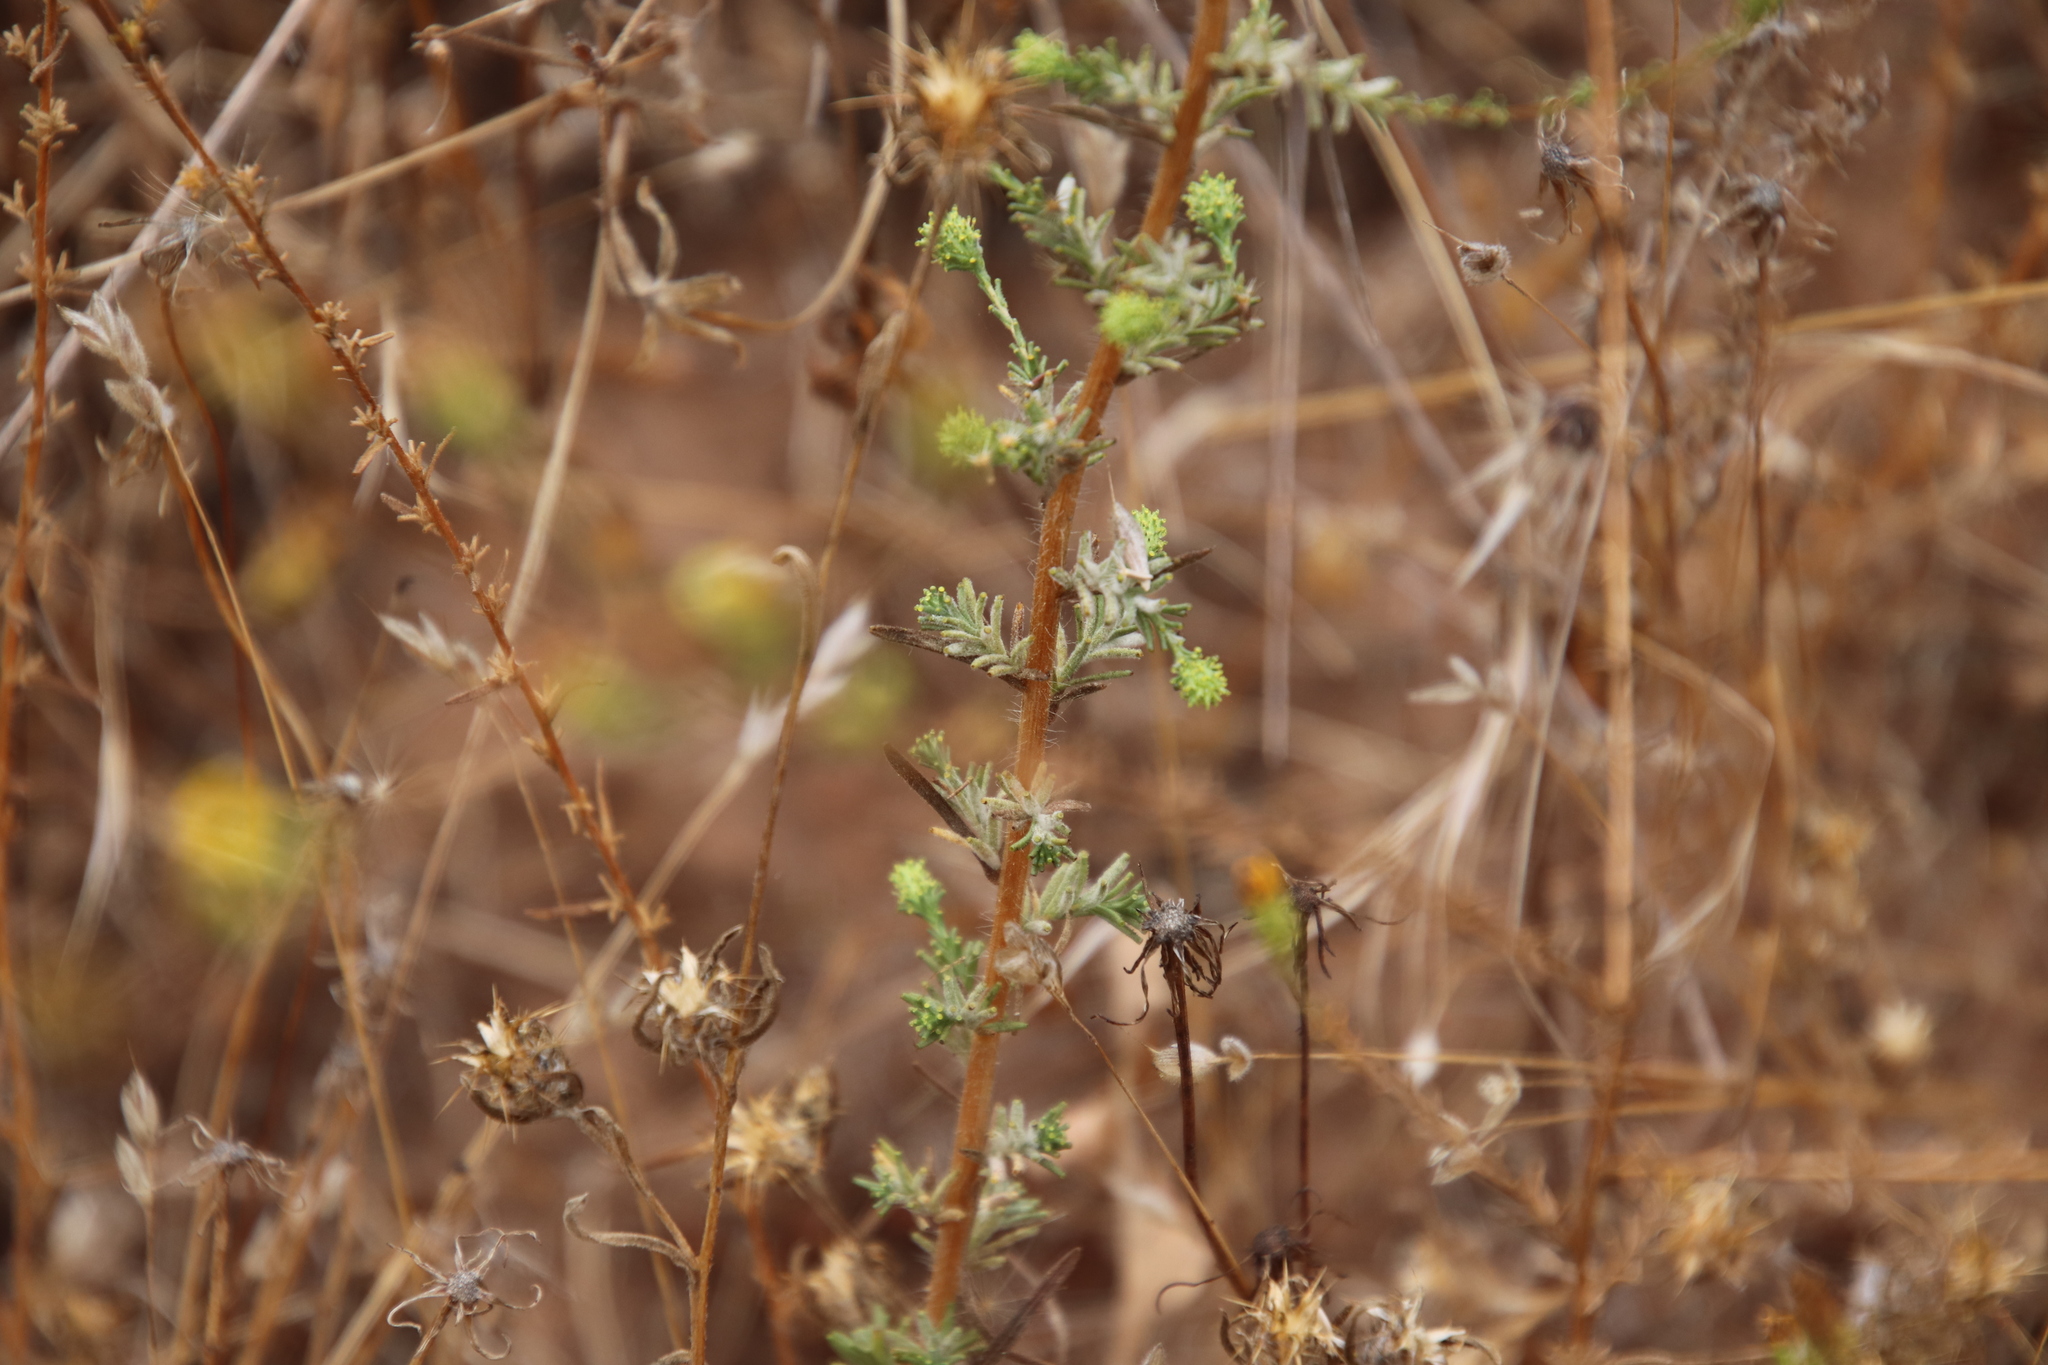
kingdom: Plantae
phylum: Tracheophyta
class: Magnoliopsida
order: Asterales
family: Asteraceae
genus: Holocarpha
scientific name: Holocarpha virgata
